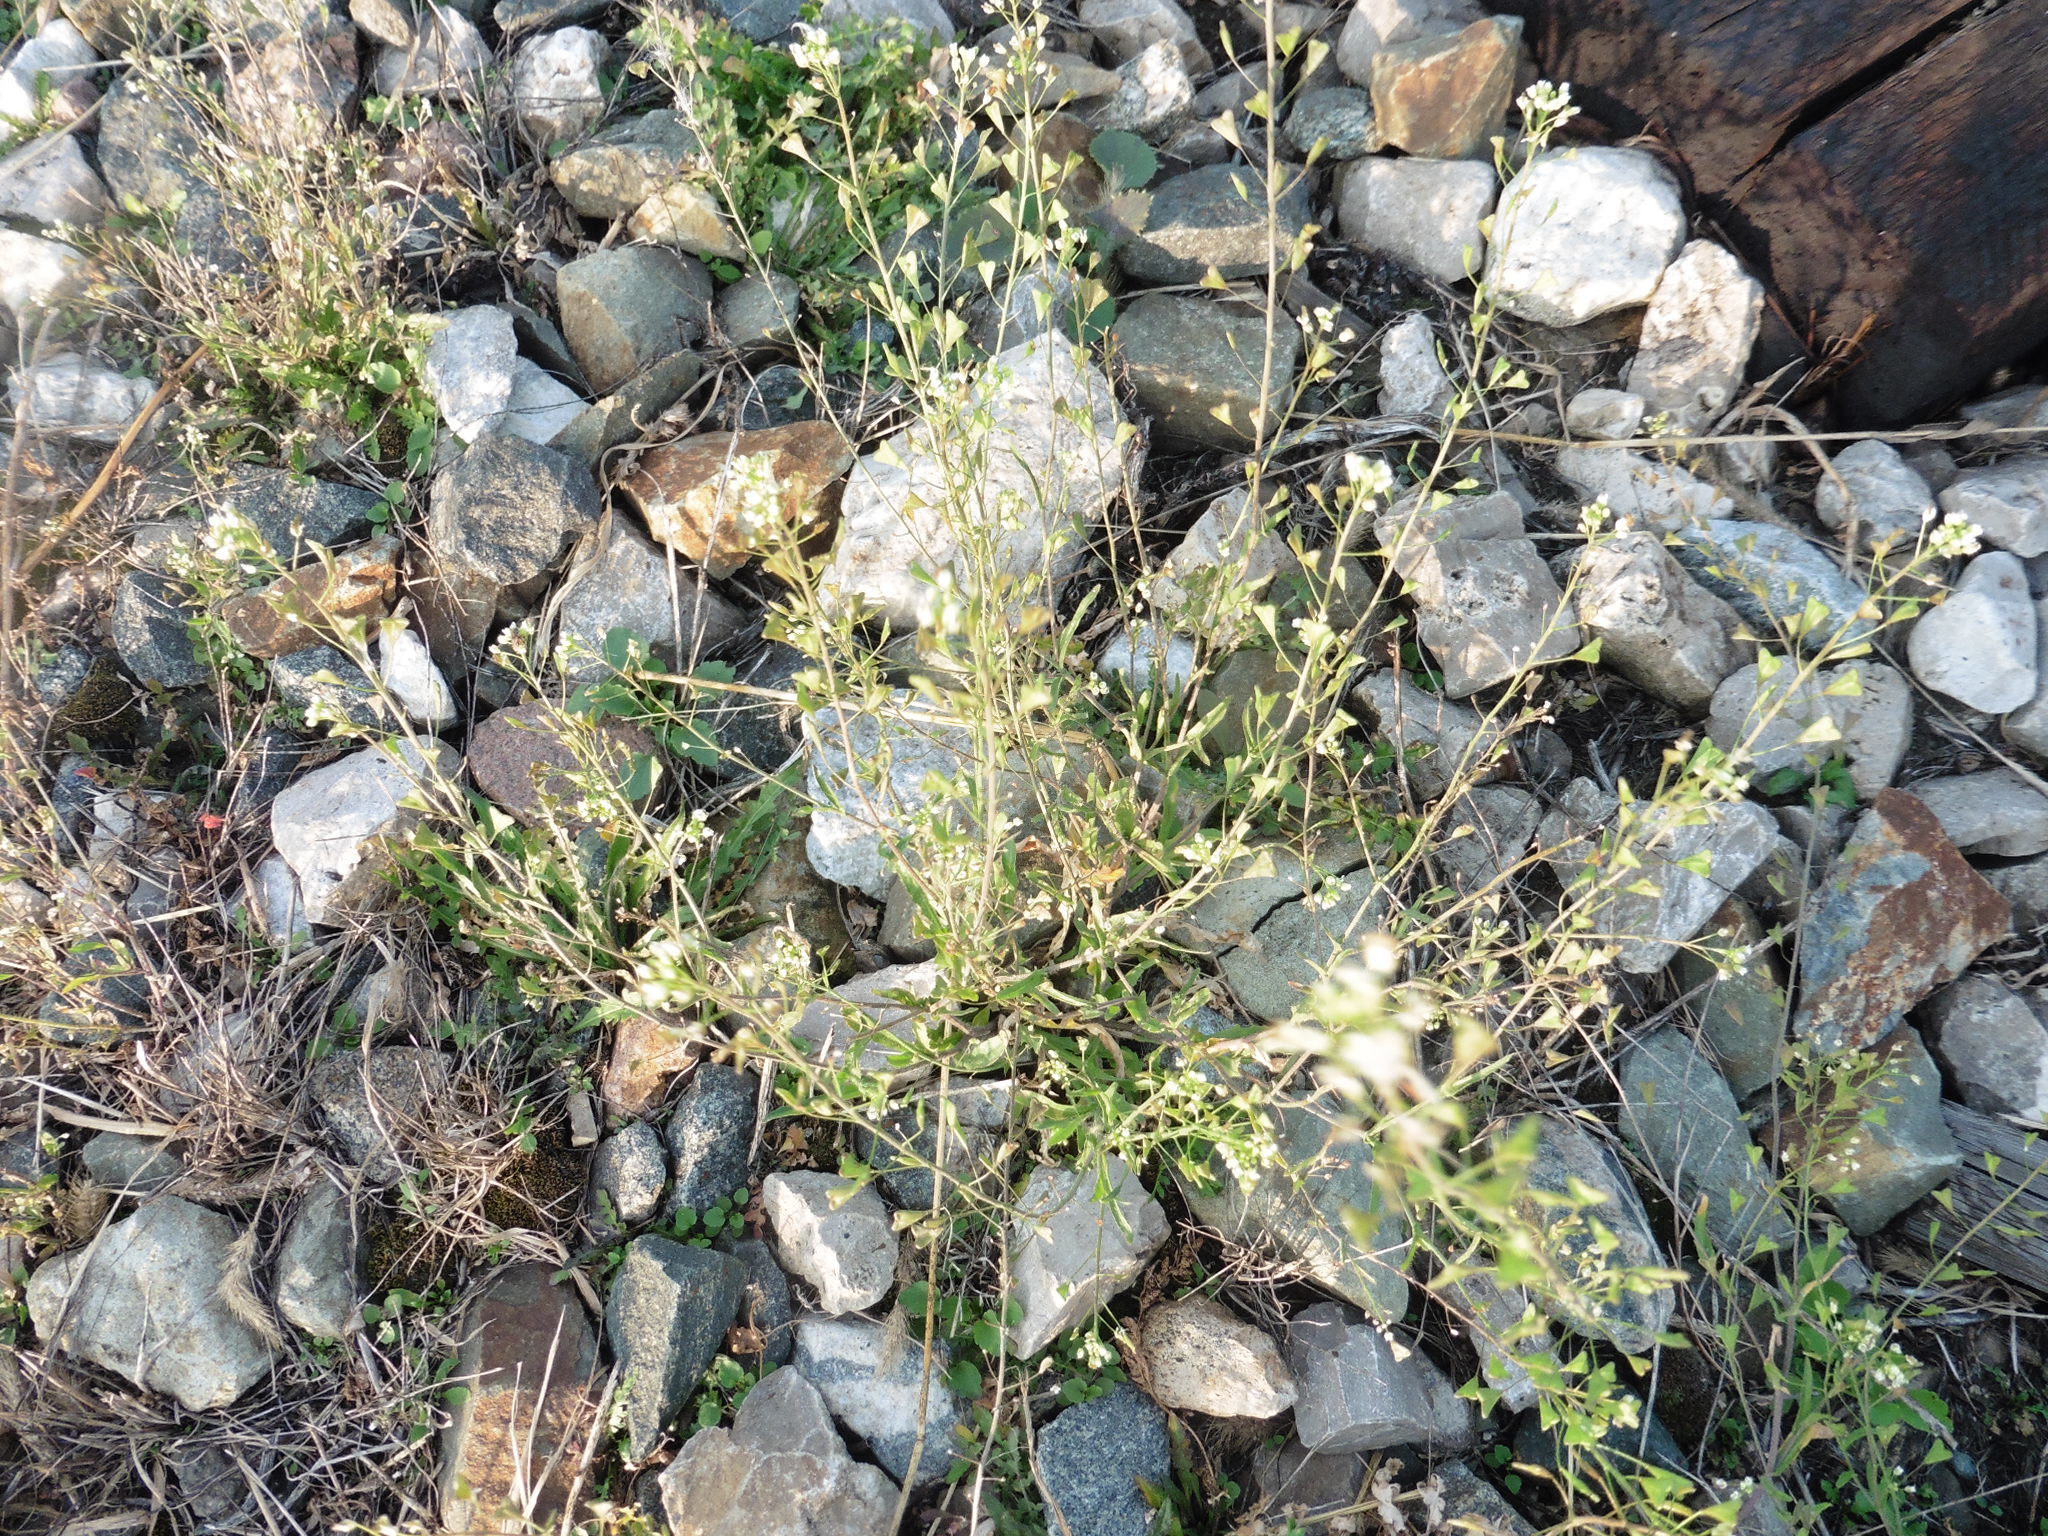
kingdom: Plantae
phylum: Tracheophyta
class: Magnoliopsida
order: Brassicales
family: Brassicaceae
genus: Capsella
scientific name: Capsella bursa-pastoris
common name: Shepherd's purse
